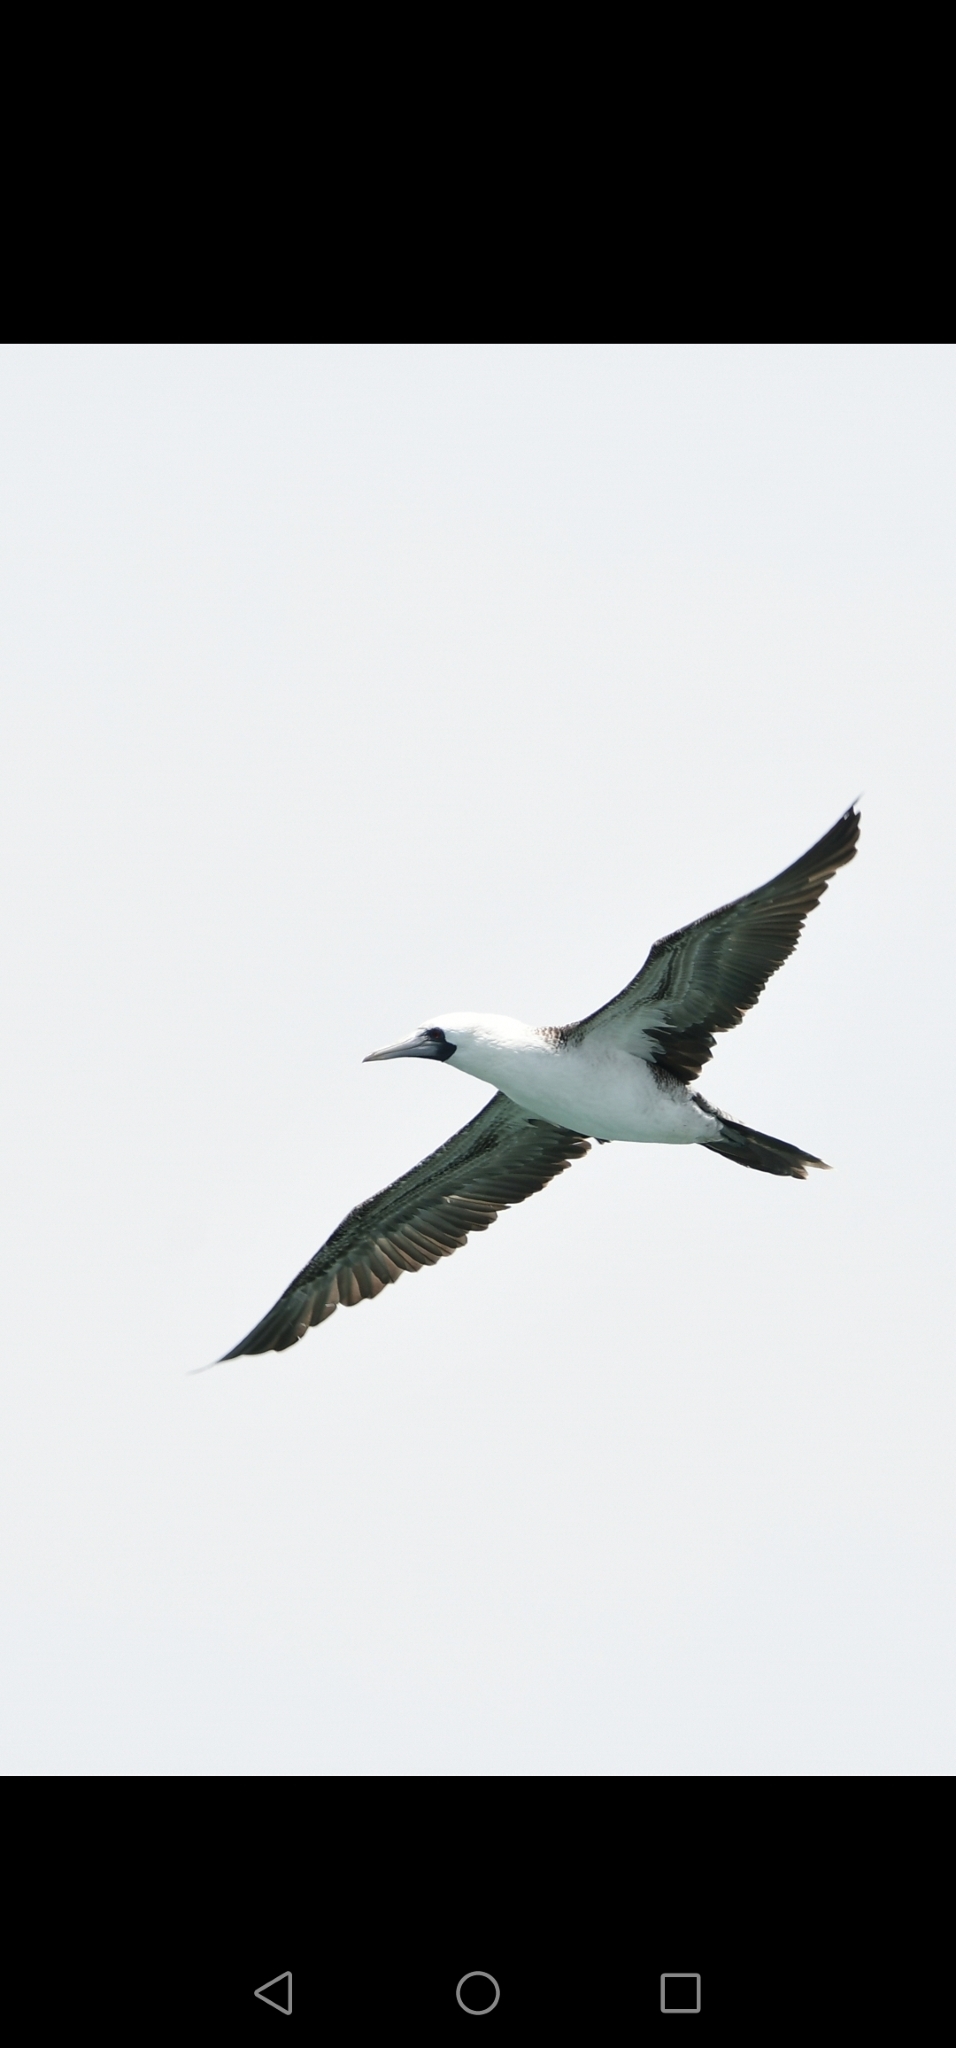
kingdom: Animalia
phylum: Chordata
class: Aves
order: Suliformes
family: Sulidae
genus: Sula
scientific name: Sula variegata
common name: Peruvian booby
